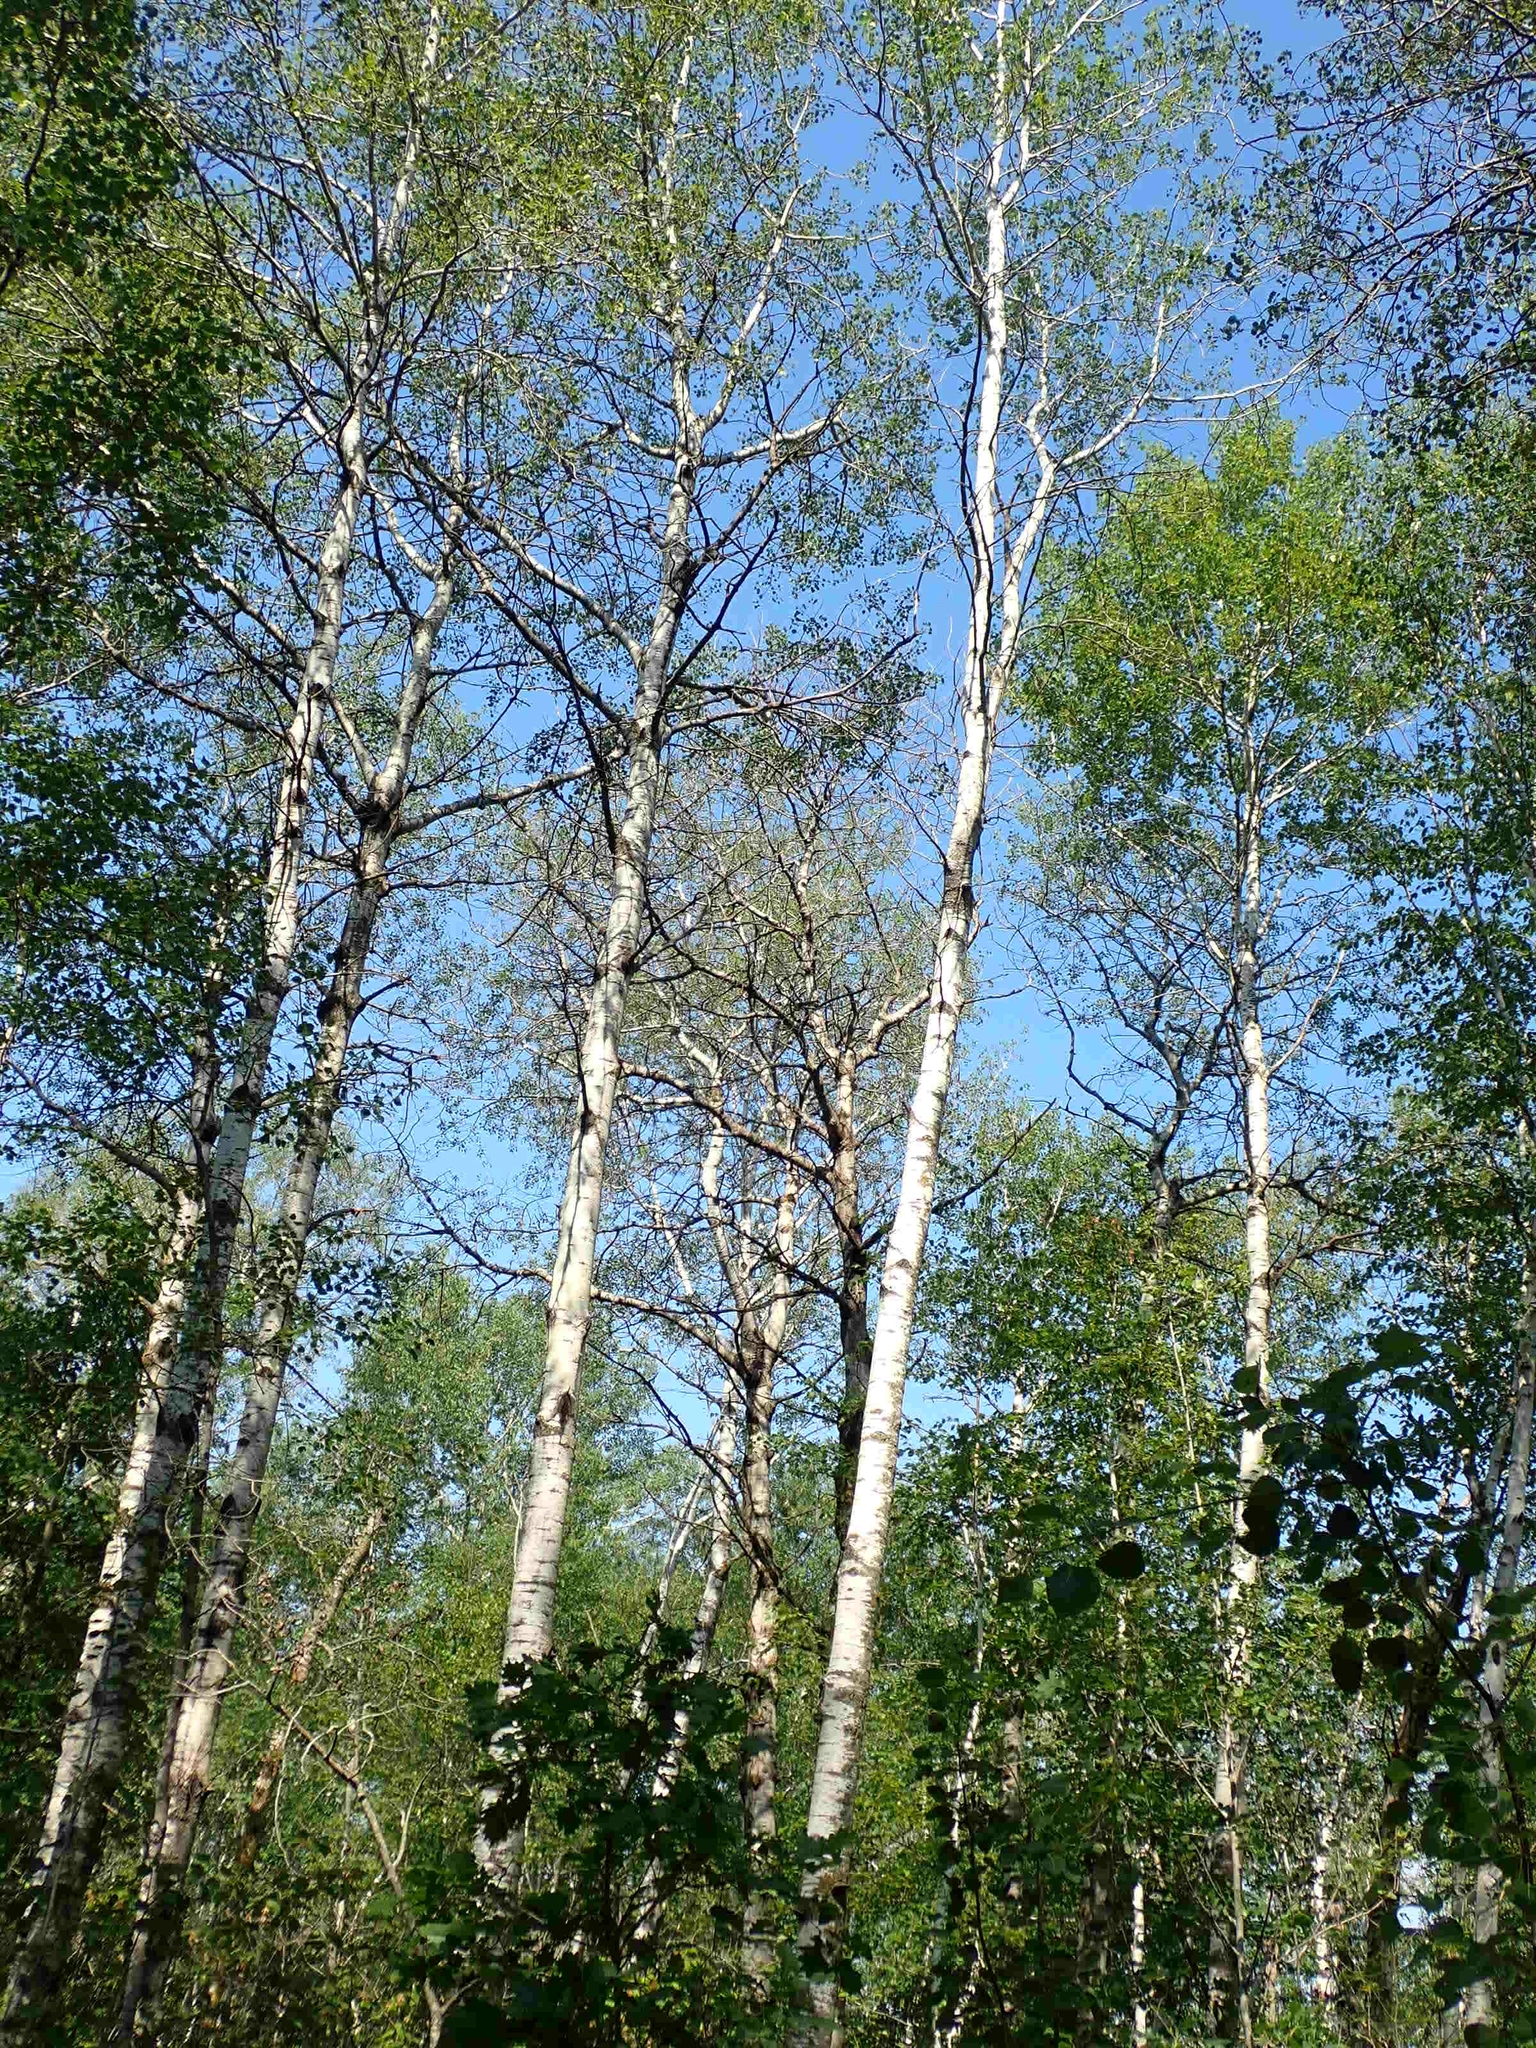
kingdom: Plantae
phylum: Tracheophyta
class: Magnoliopsida
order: Malpighiales
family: Salicaceae
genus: Populus
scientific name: Populus tremuloides
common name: Quaking aspen
